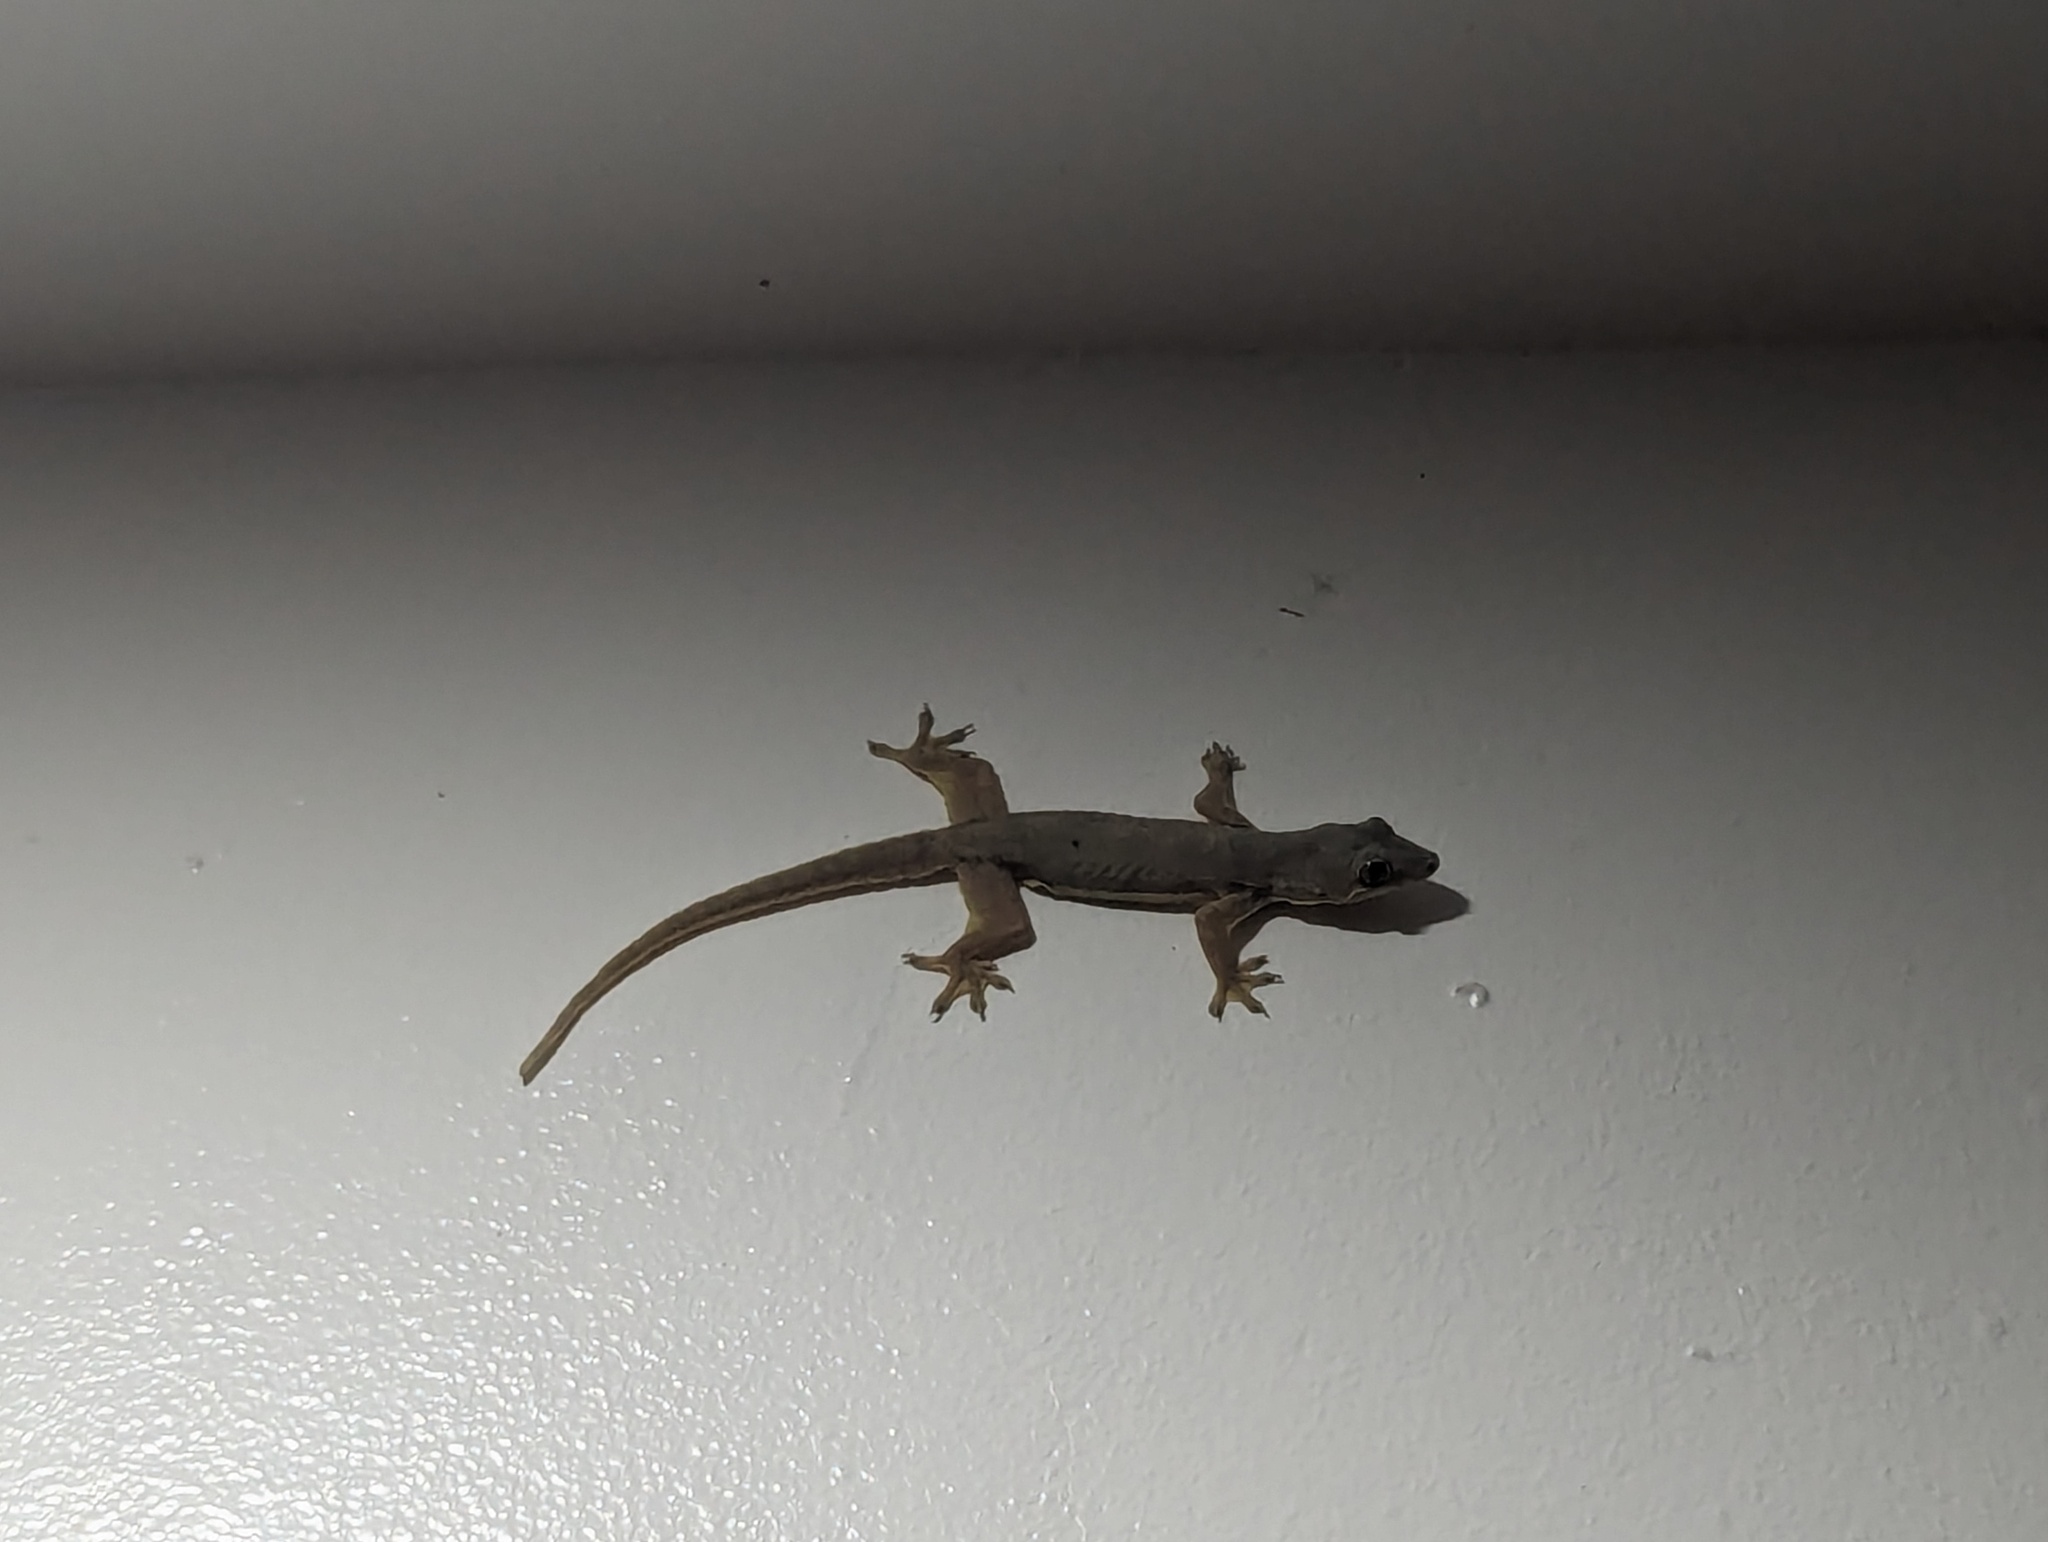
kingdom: Animalia
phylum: Chordata
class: Squamata
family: Gekkonidae
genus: Hemidactylus
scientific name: Hemidactylus platyurus
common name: Flat-tailed house gecko
